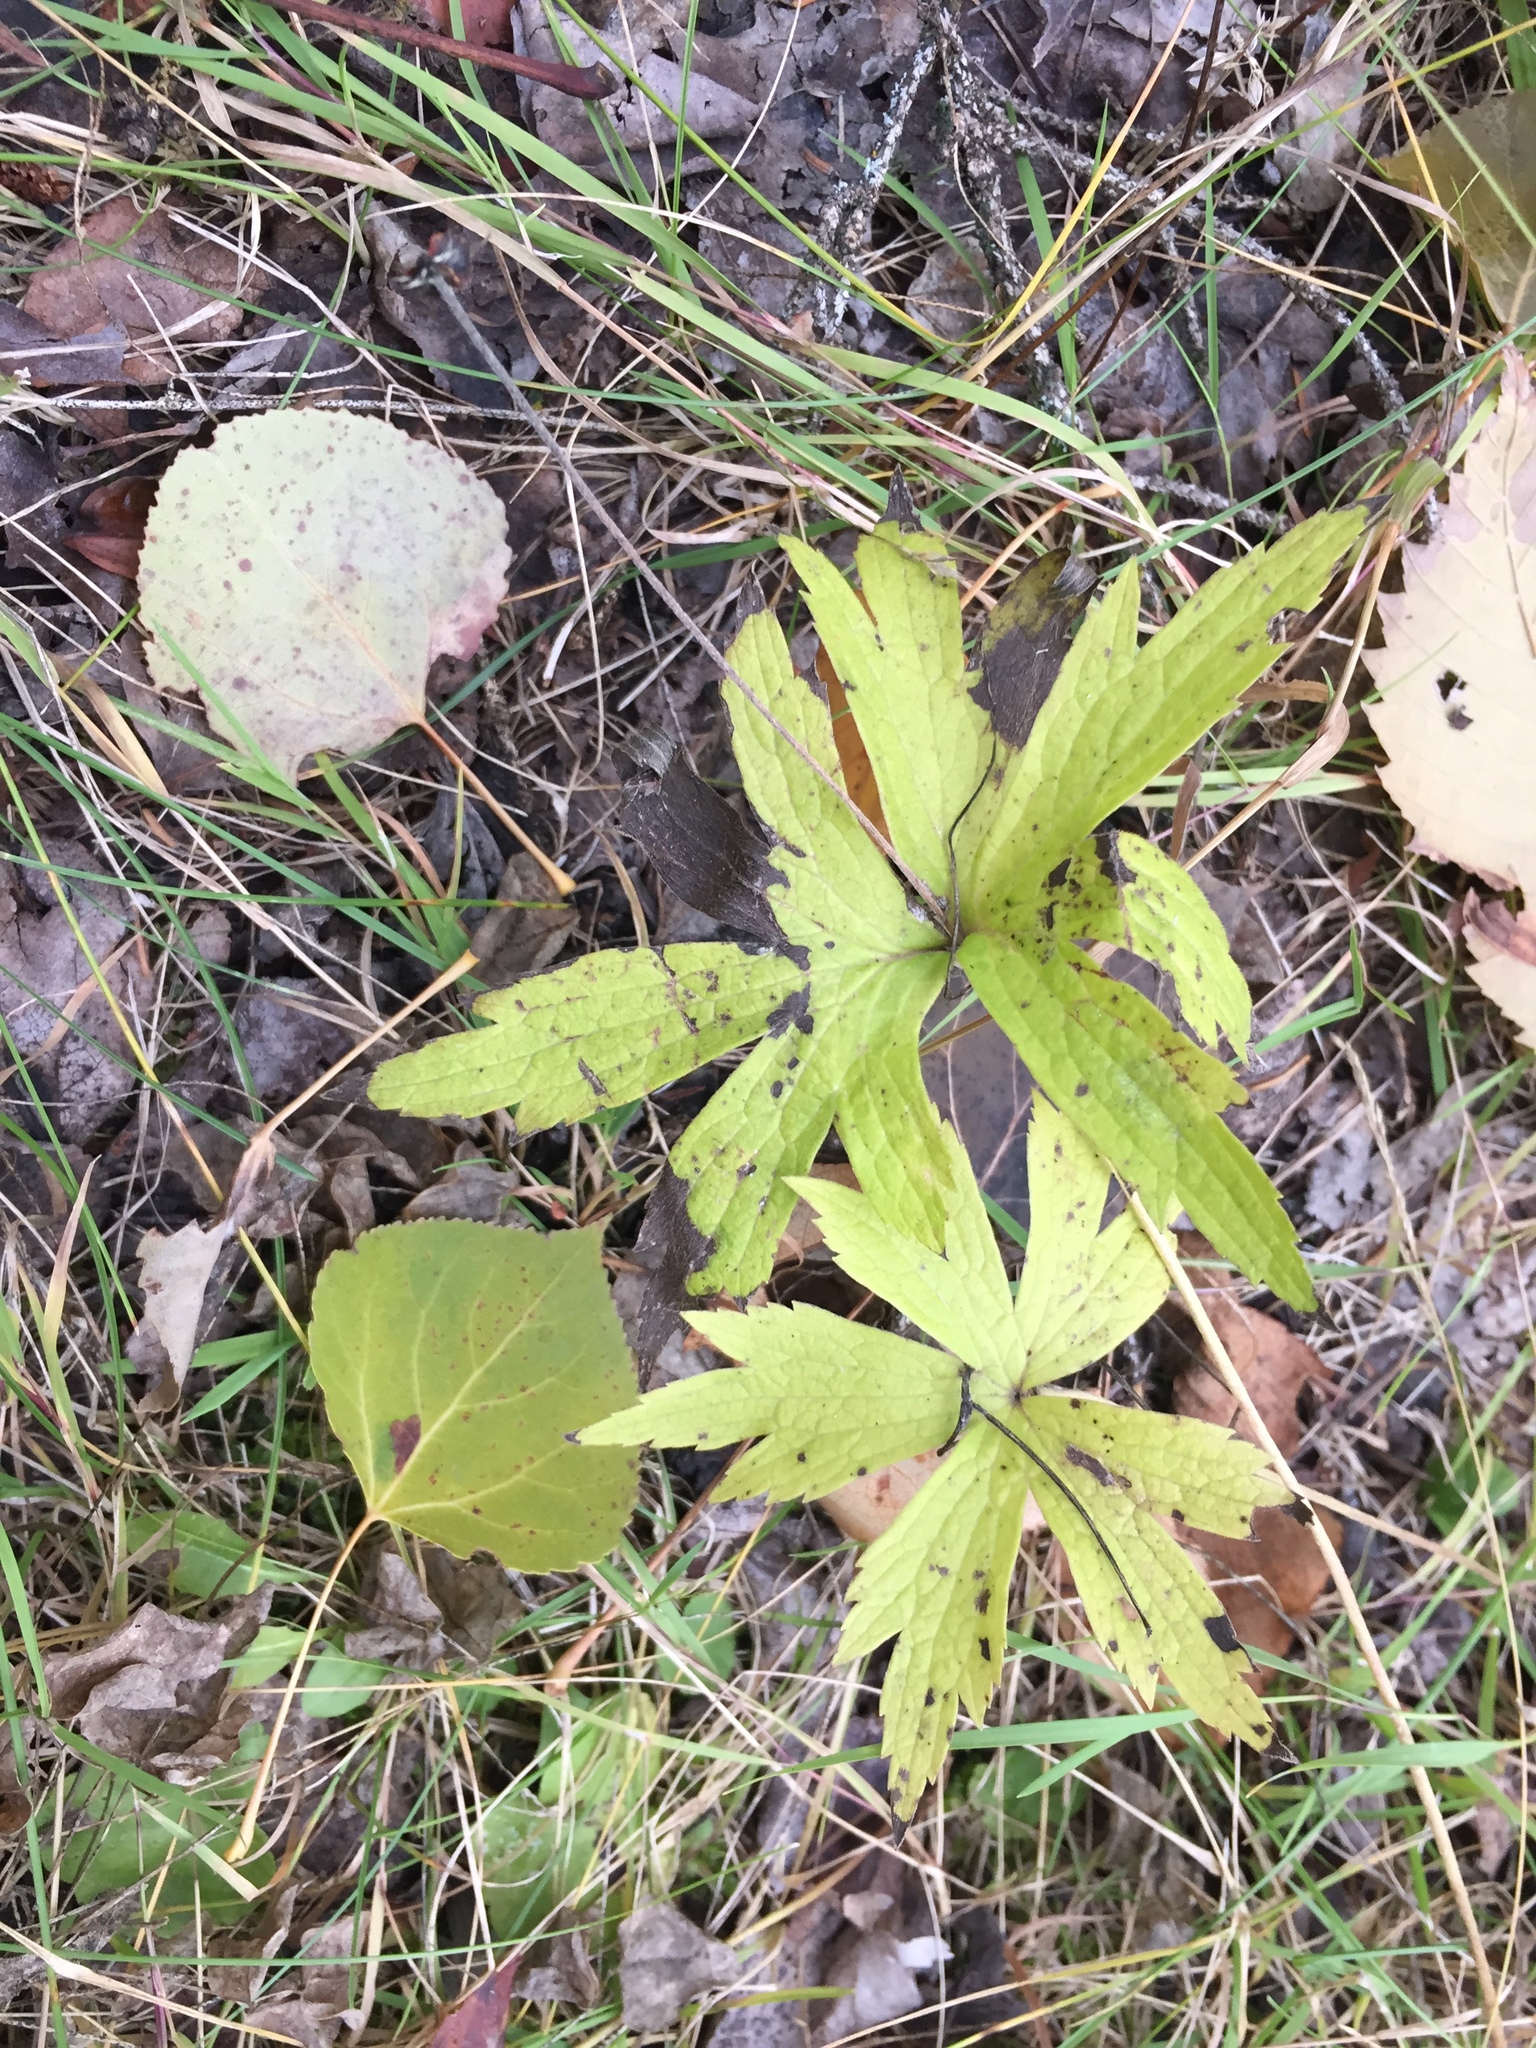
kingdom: Plantae
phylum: Tracheophyta
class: Magnoliopsida
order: Ranunculales
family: Ranunculaceae
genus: Anemonastrum
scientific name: Anemonastrum canadense
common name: Canada anemone
